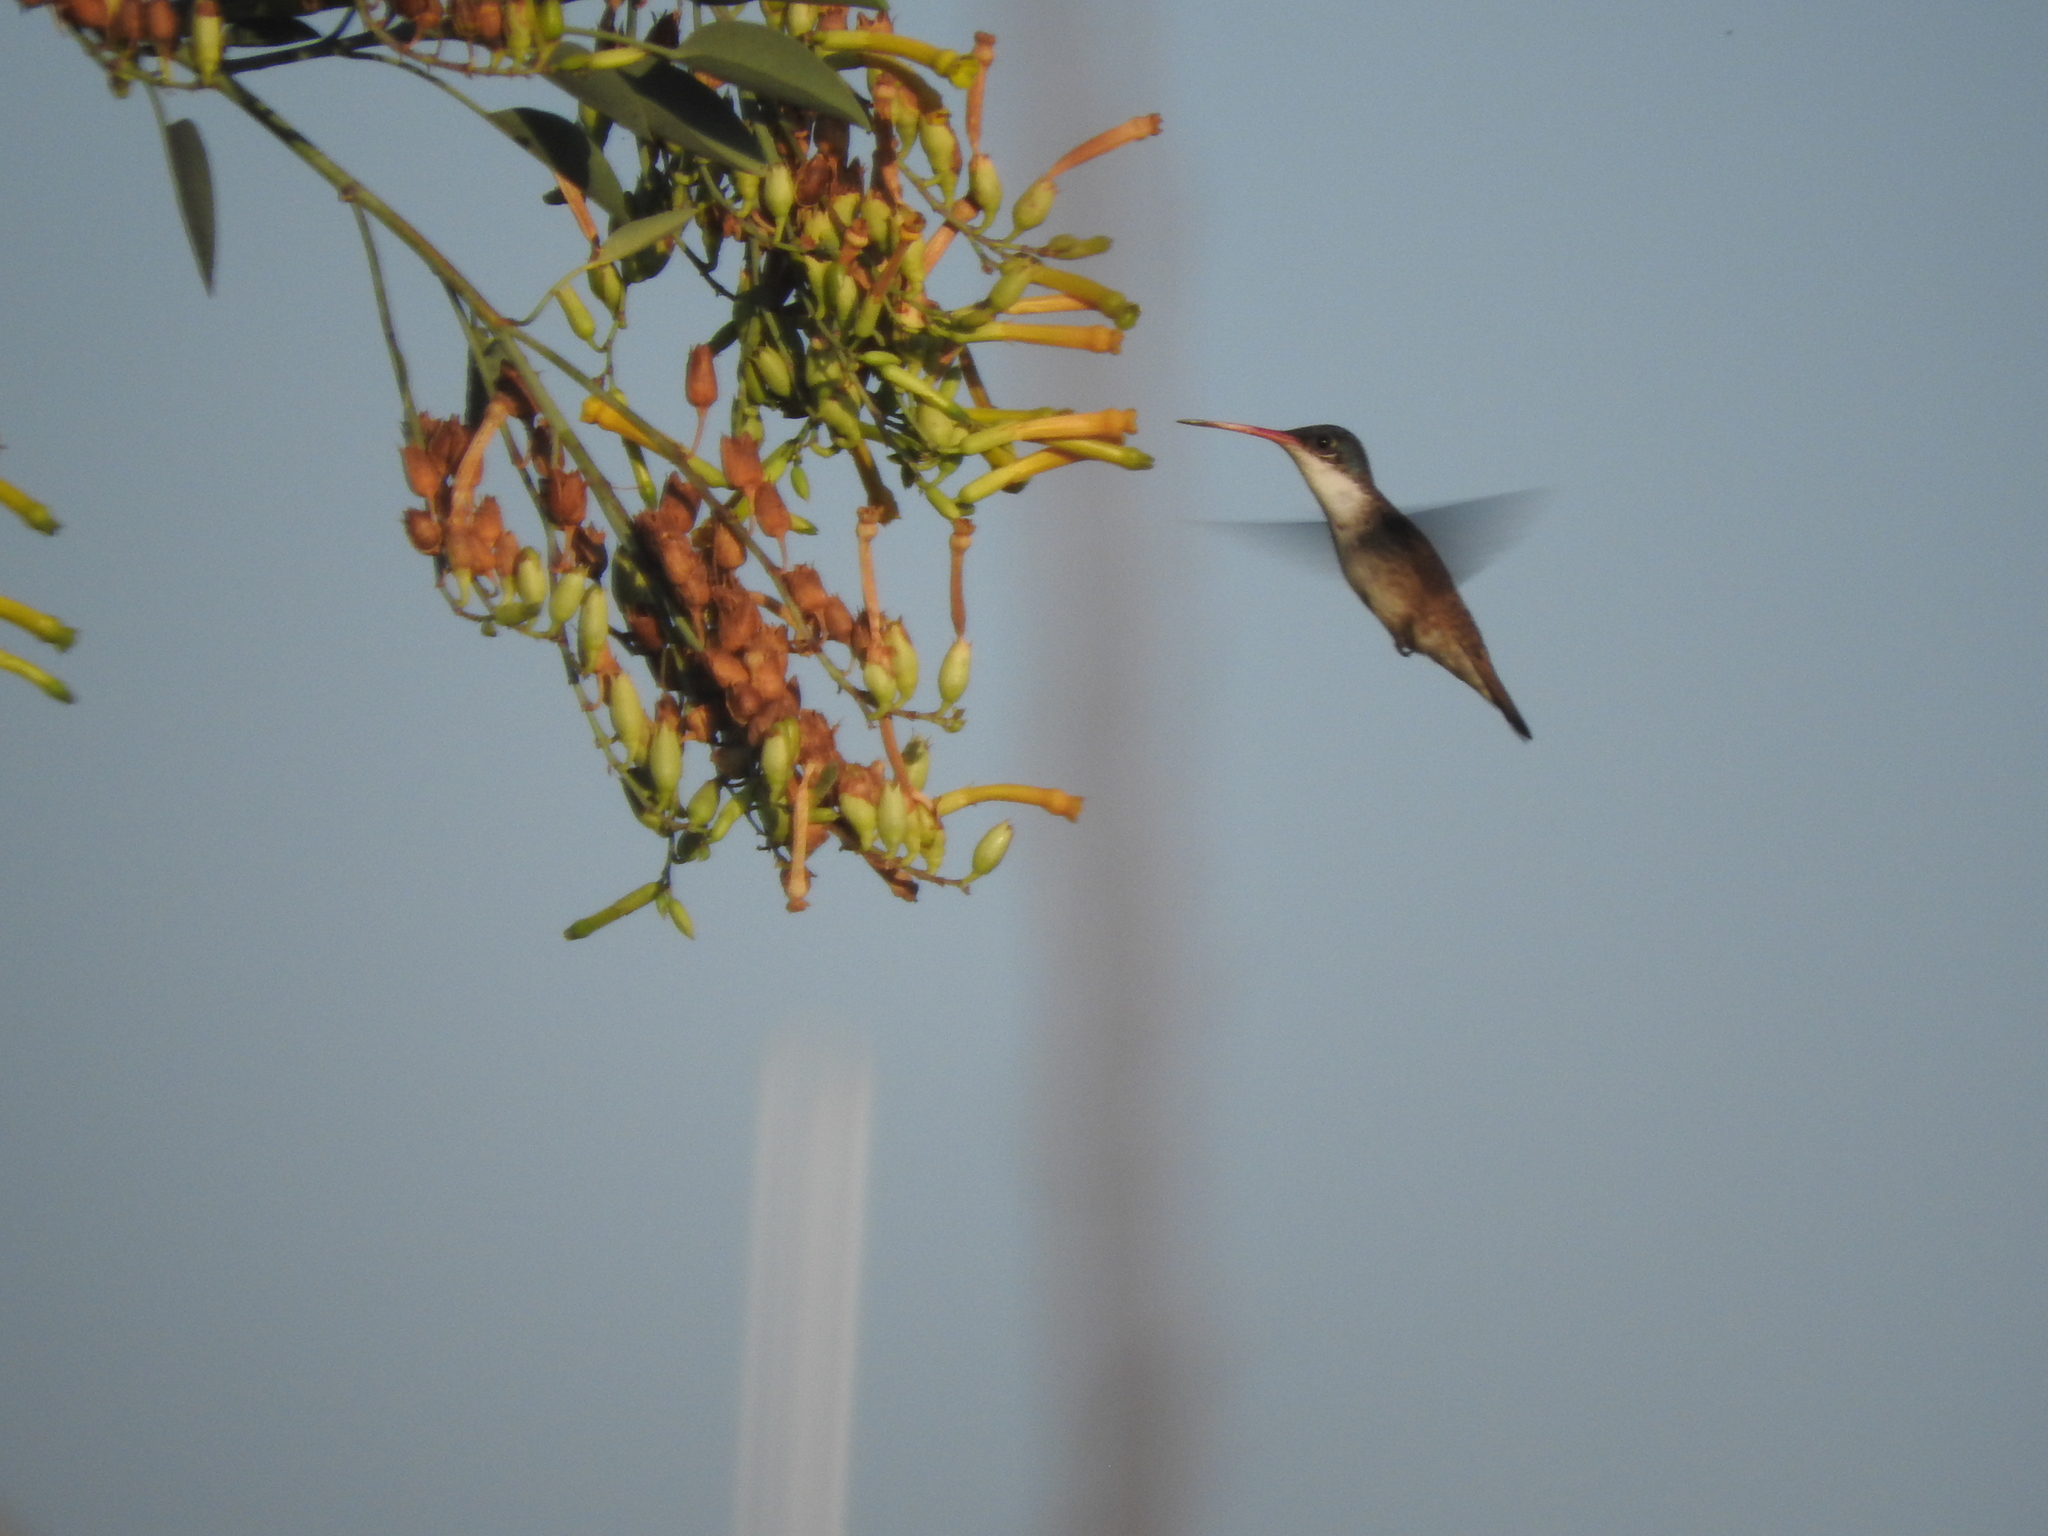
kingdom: Animalia
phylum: Chordata
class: Aves
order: Apodiformes
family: Trochilidae
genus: Leucolia
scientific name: Leucolia violiceps
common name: Violet-crowned hummingbird
